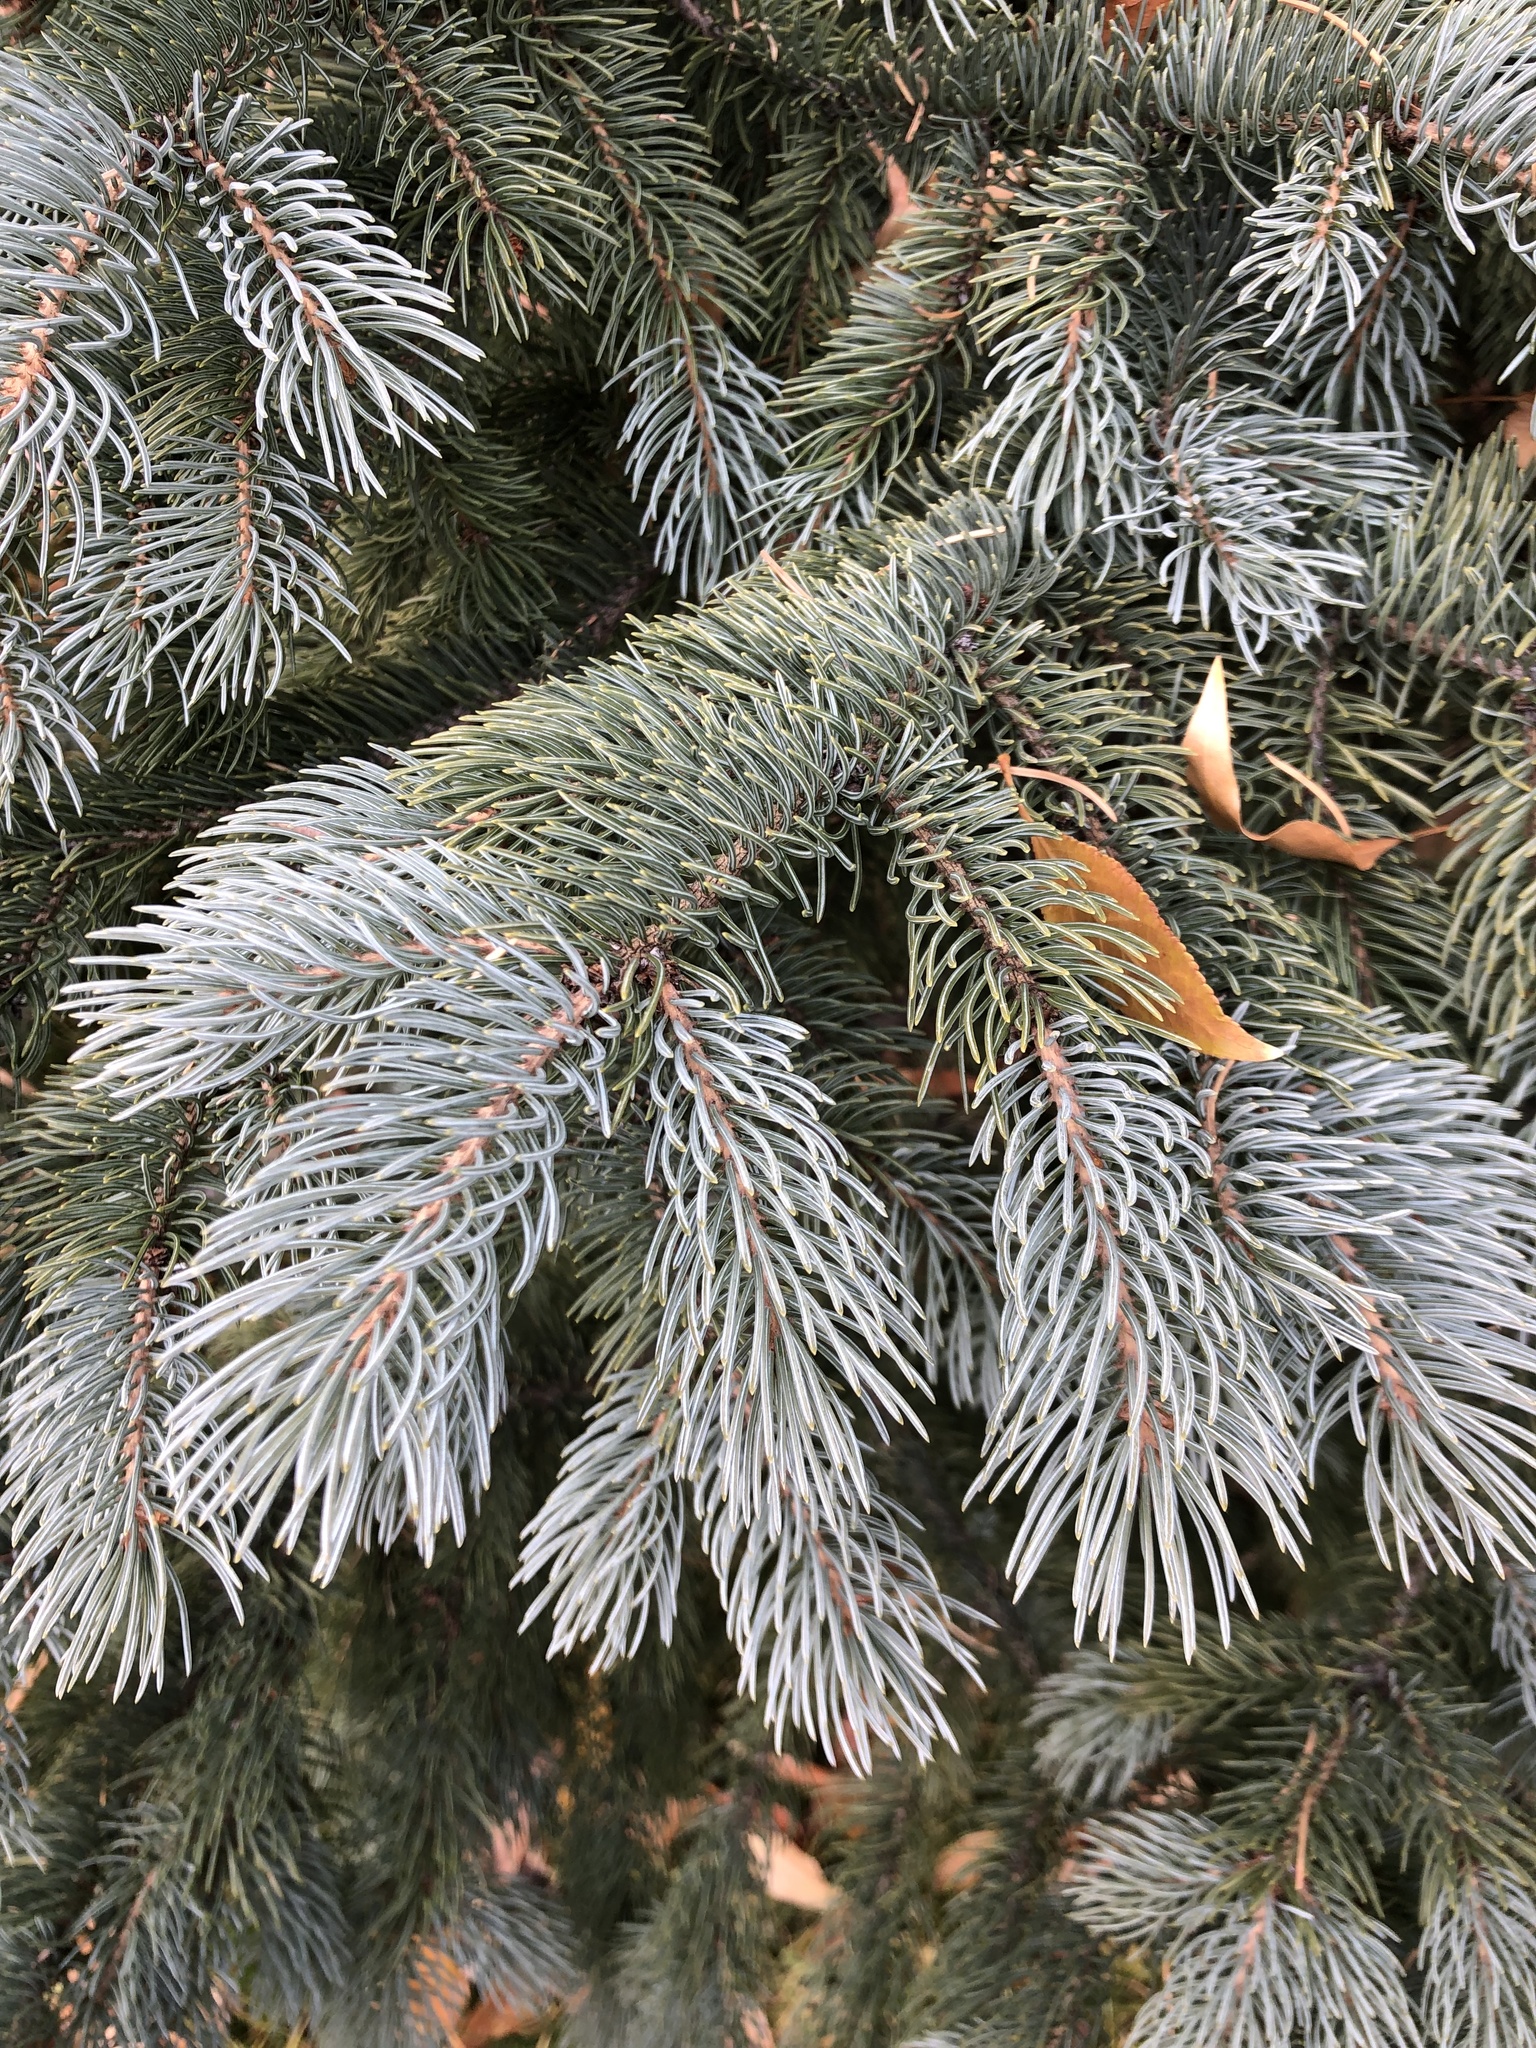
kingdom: Plantae
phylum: Tracheophyta
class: Pinopsida
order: Pinales
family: Pinaceae
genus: Picea
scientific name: Picea pungens
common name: Colorado spruce
